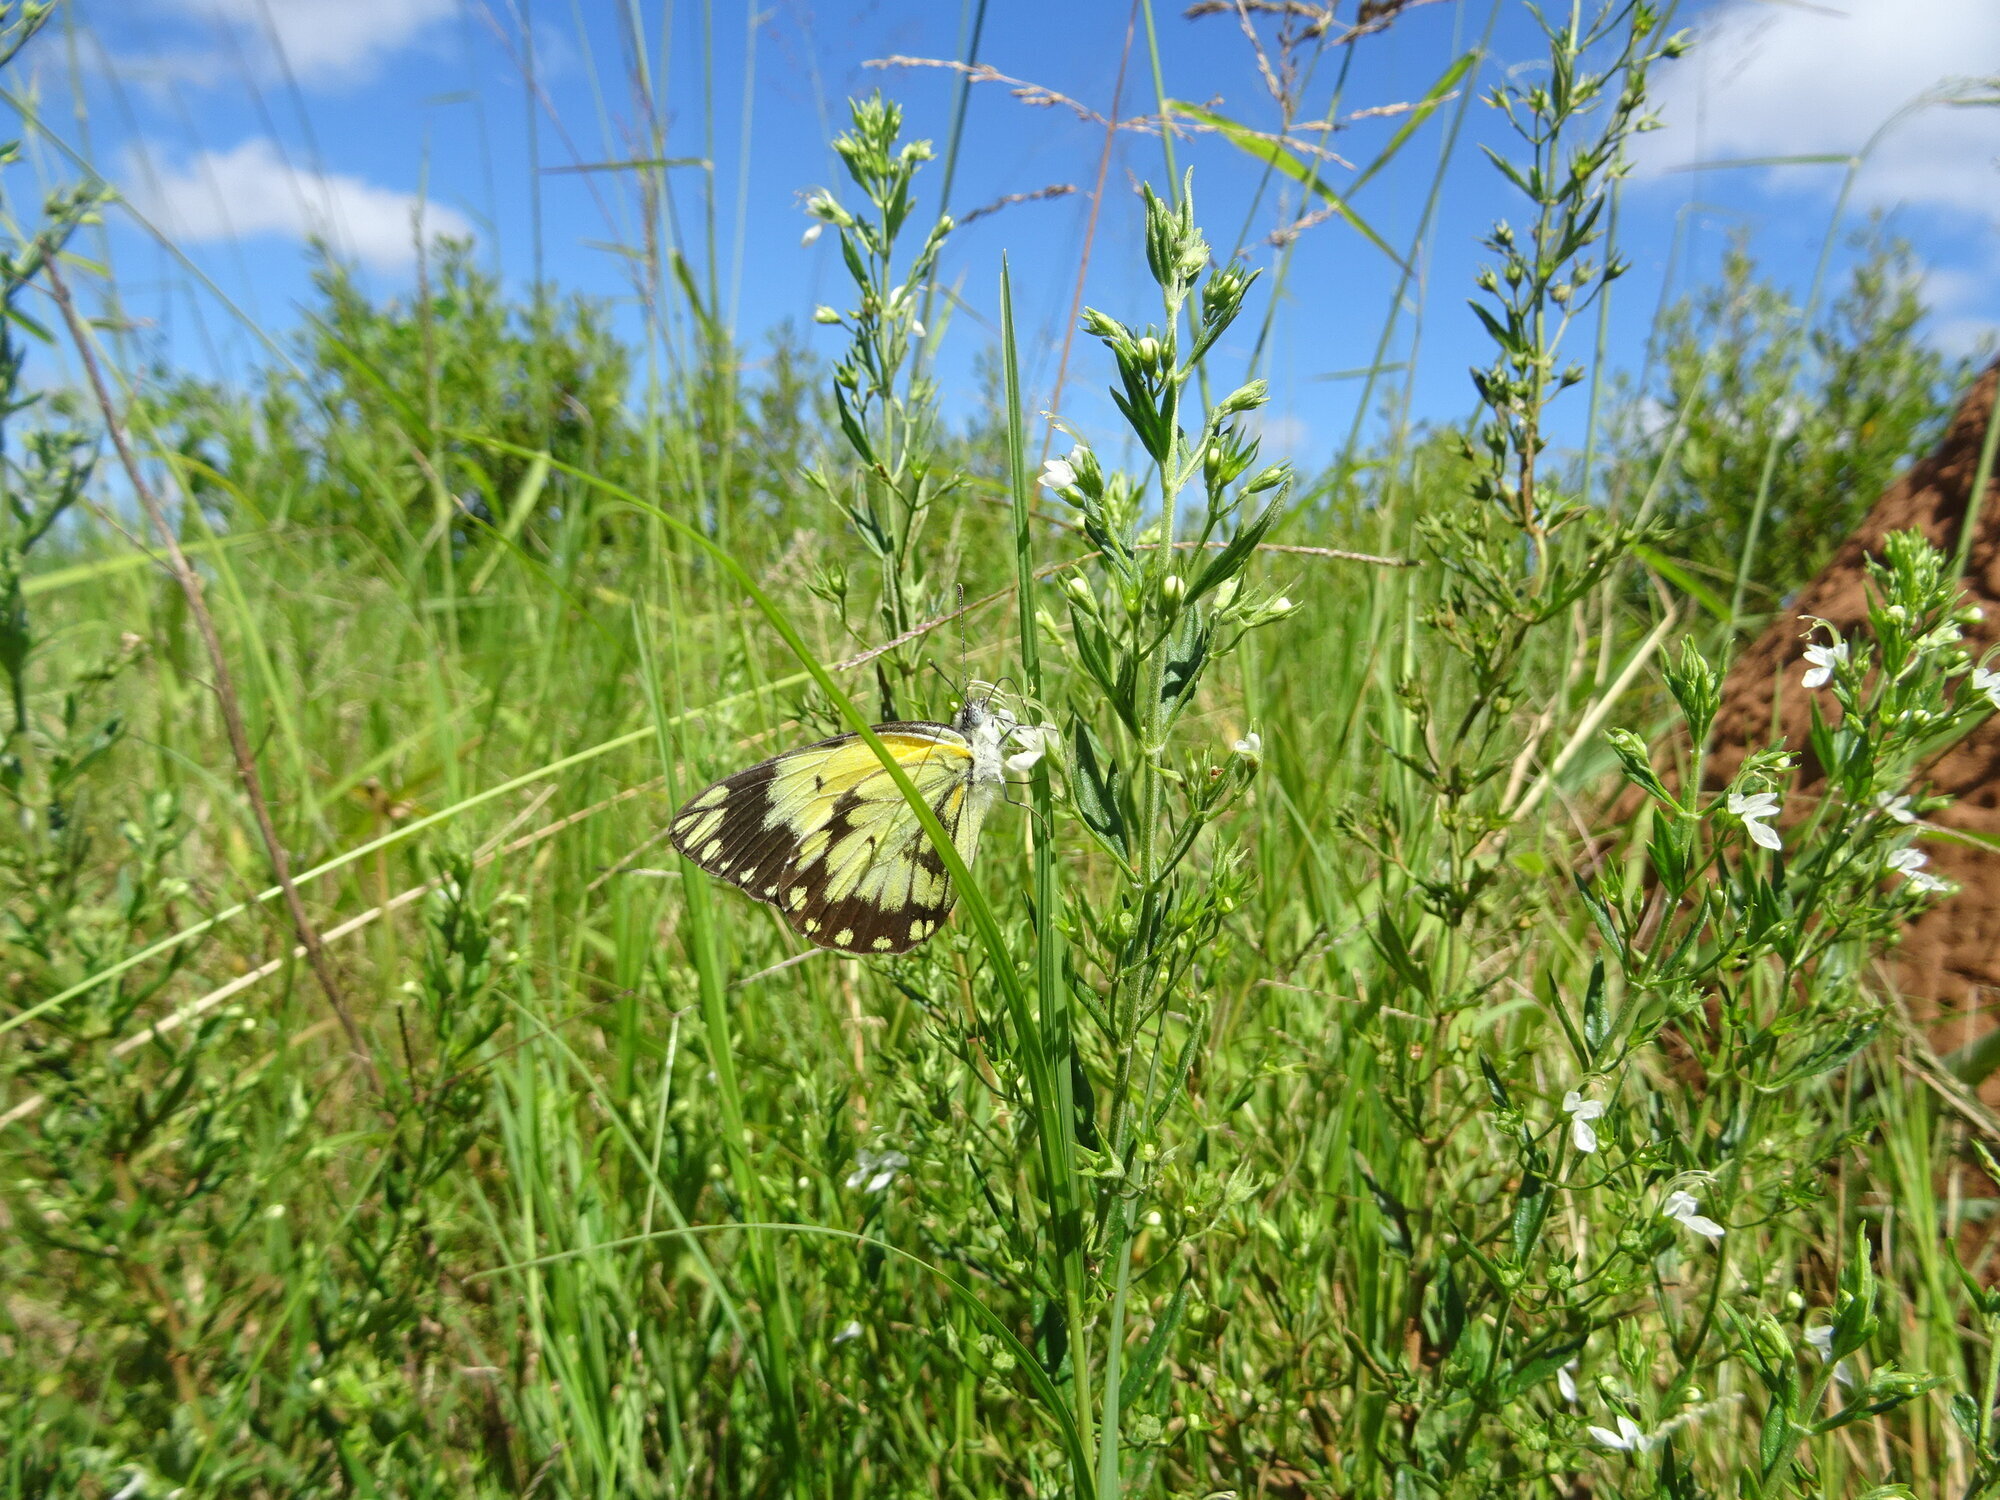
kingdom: Animalia
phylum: Arthropoda
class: Insecta
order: Lepidoptera
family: Pieridae
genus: Belenois
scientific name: Belenois creona
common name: African caper white
